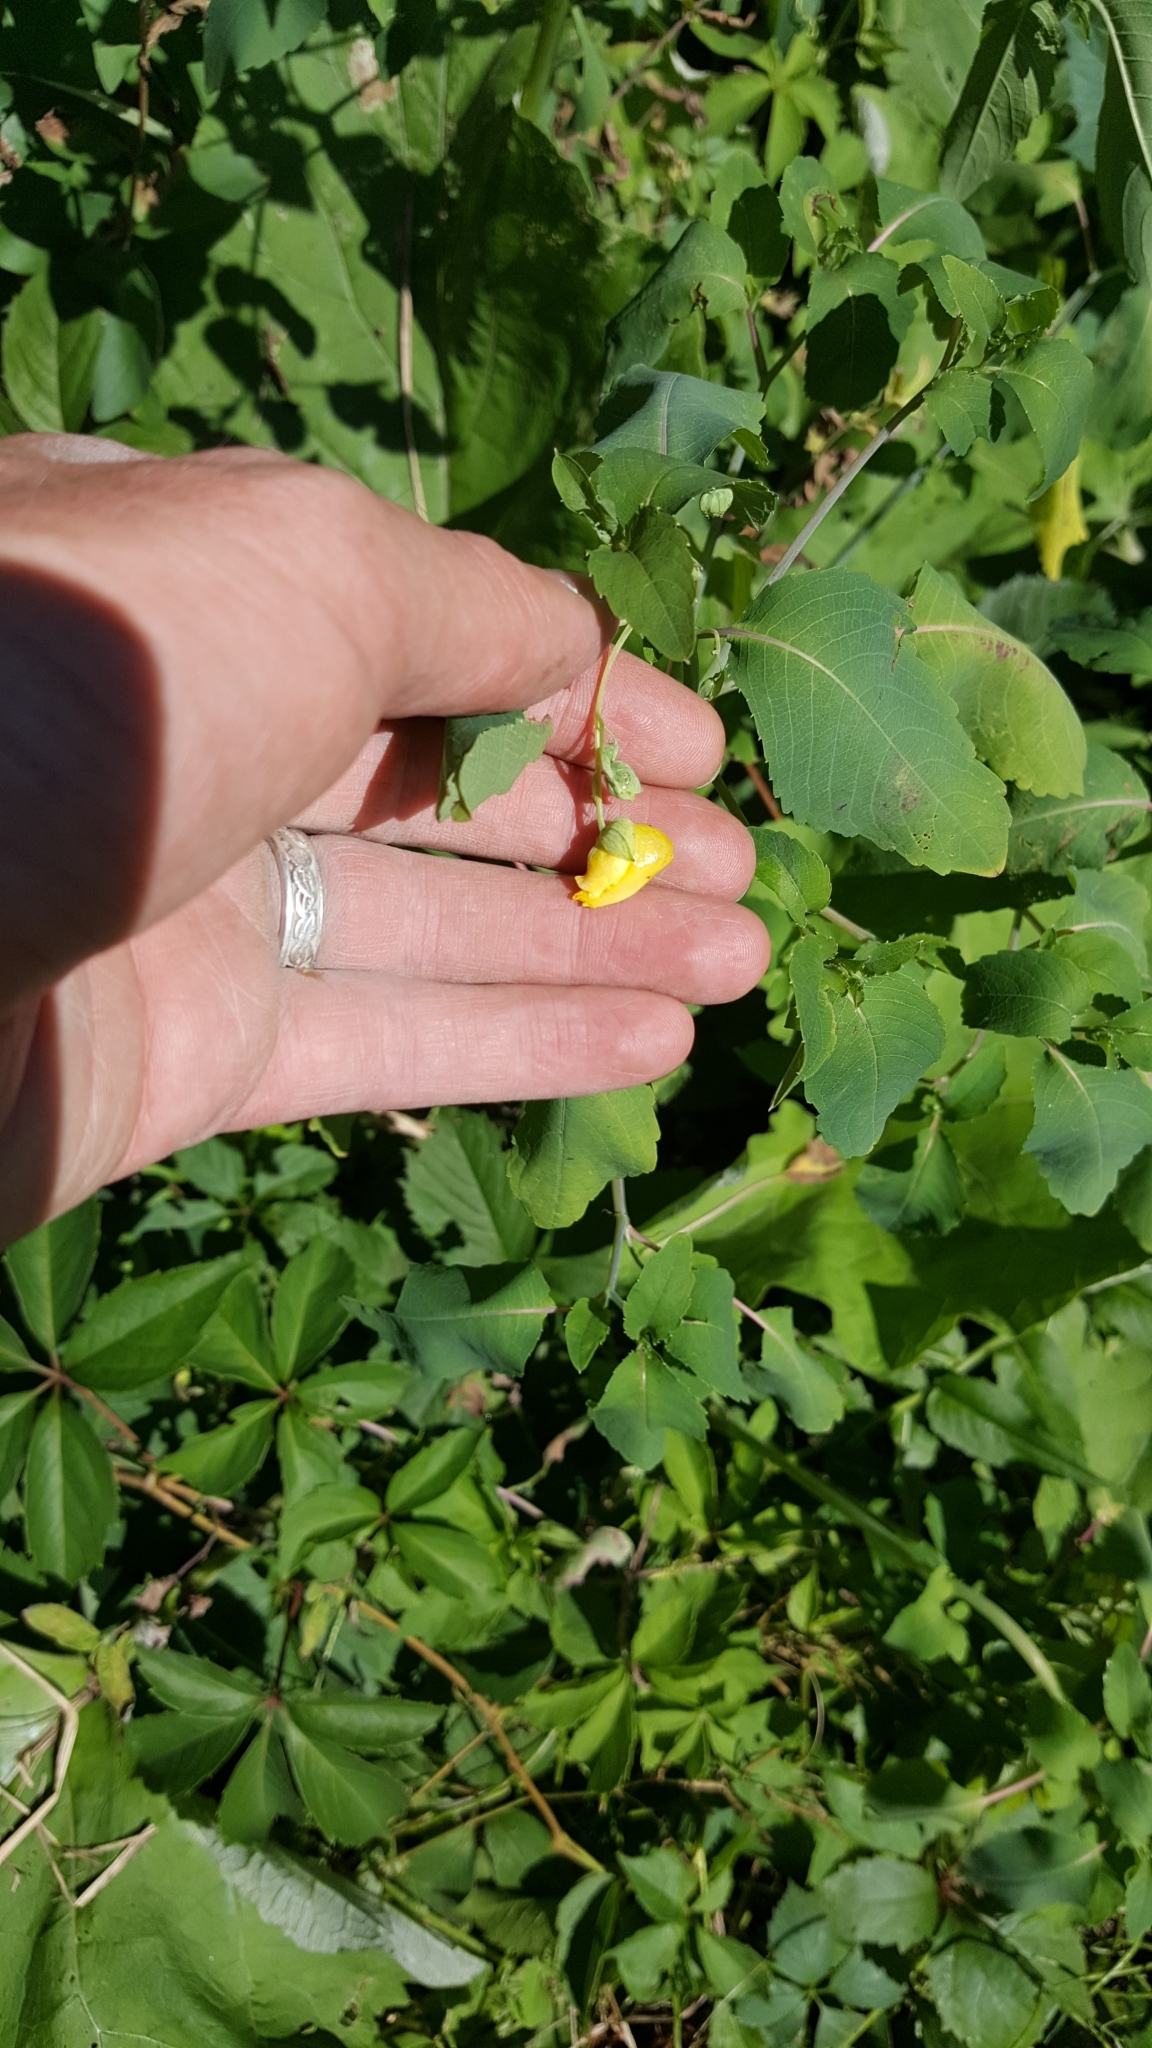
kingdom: Plantae
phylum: Tracheophyta
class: Magnoliopsida
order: Ericales
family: Balsaminaceae
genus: Impatiens
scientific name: Impatiens pallida
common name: Pale snapweed
